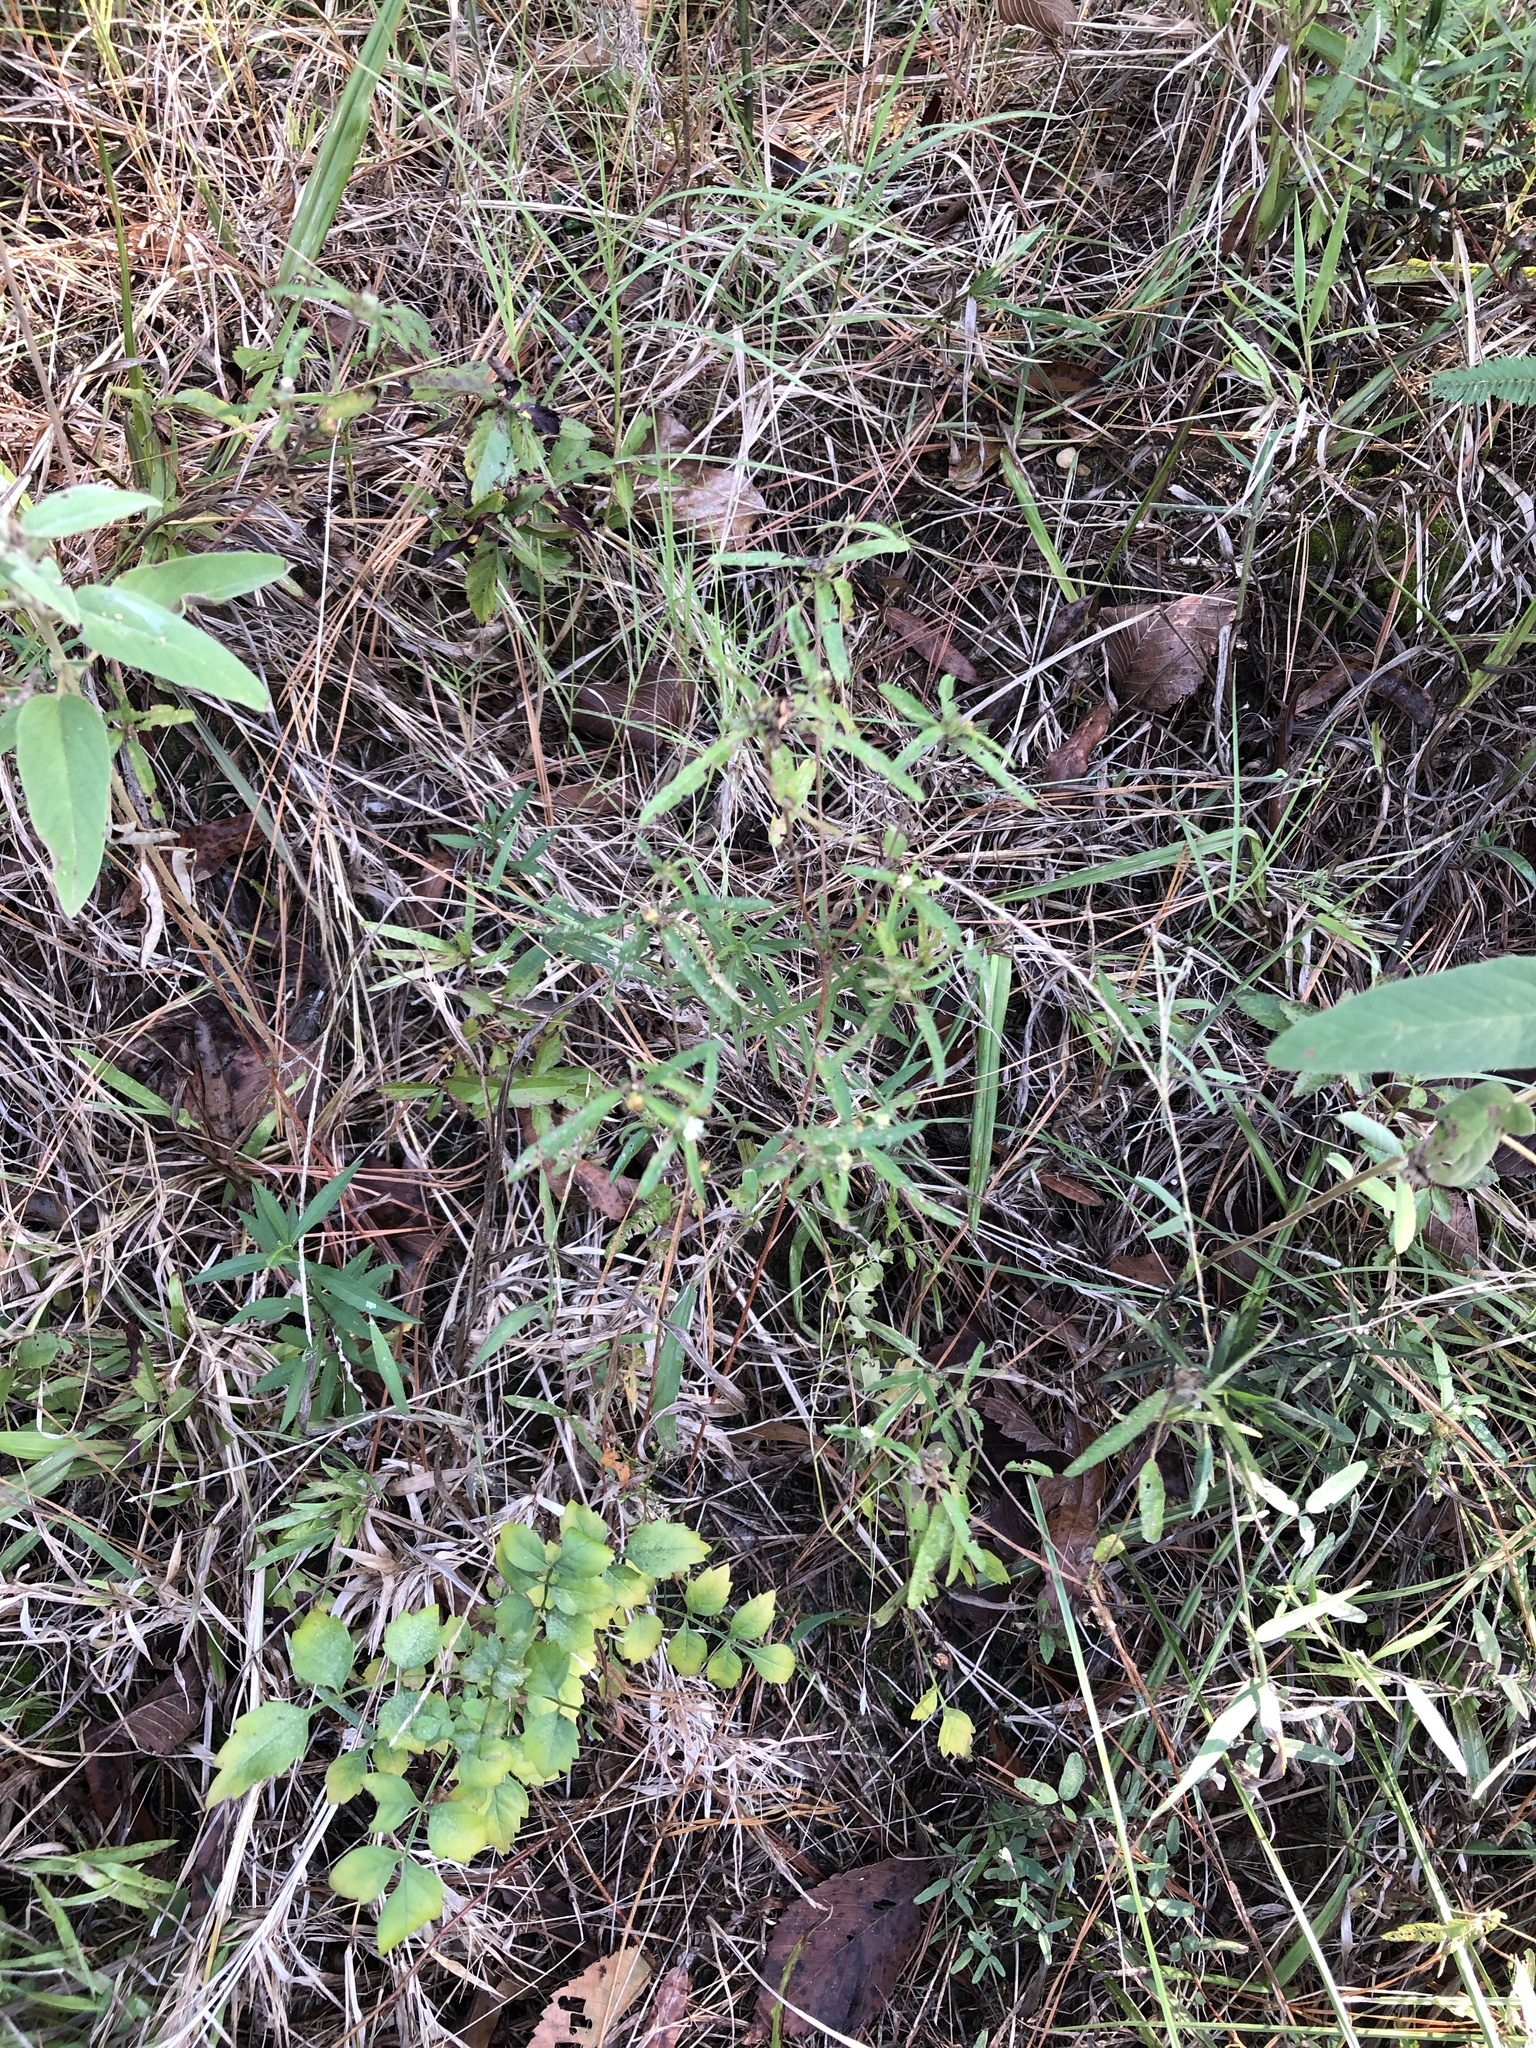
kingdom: Plantae
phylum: Tracheophyta
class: Magnoliopsida
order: Malpighiales
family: Euphorbiaceae
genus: Croton
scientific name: Croton glandulosus
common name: Tropic croton
